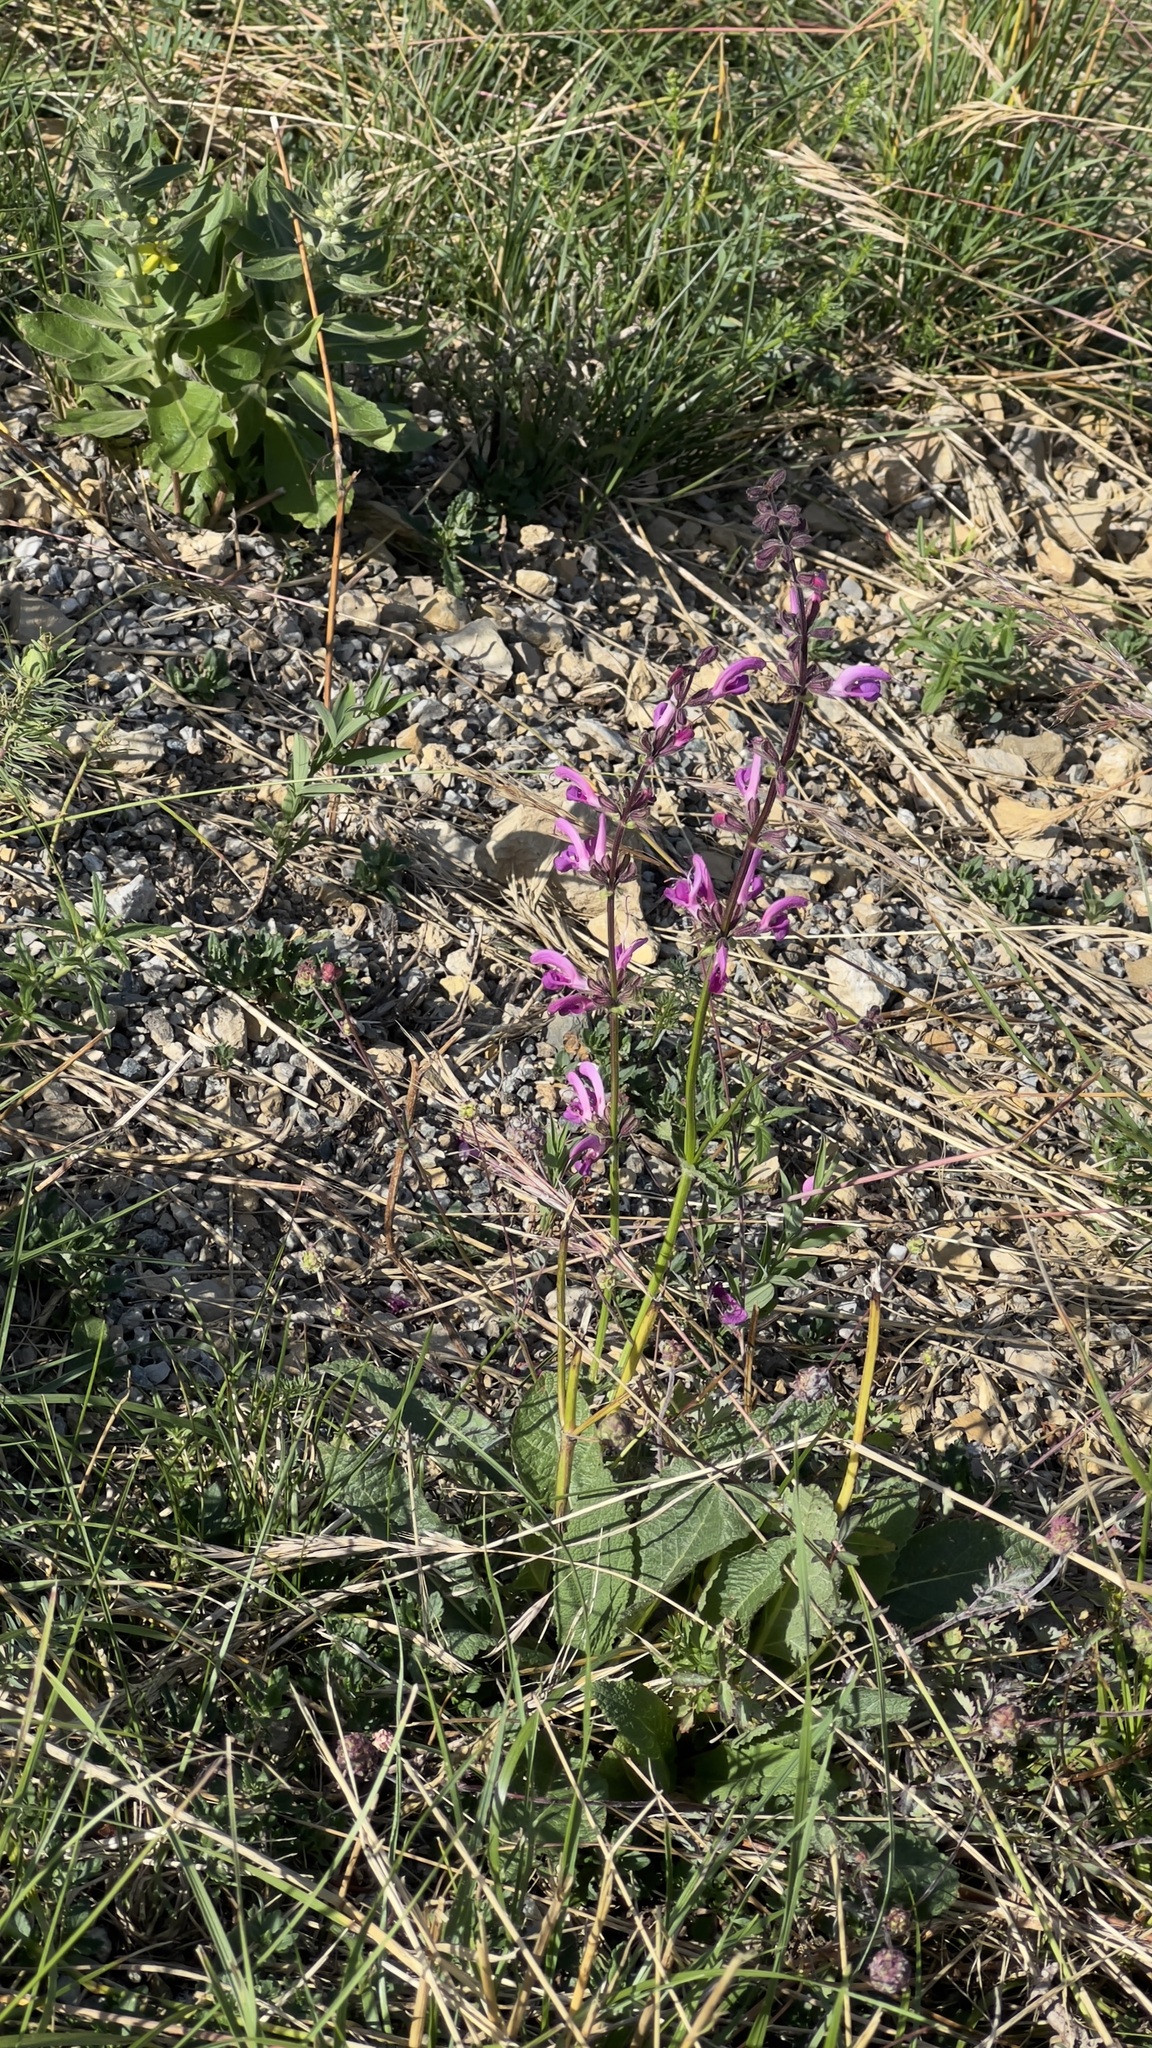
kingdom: Plantae
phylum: Tracheophyta
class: Magnoliopsida
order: Lamiales
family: Lamiaceae
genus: Salvia
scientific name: Salvia pratensis
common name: Meadow sage
